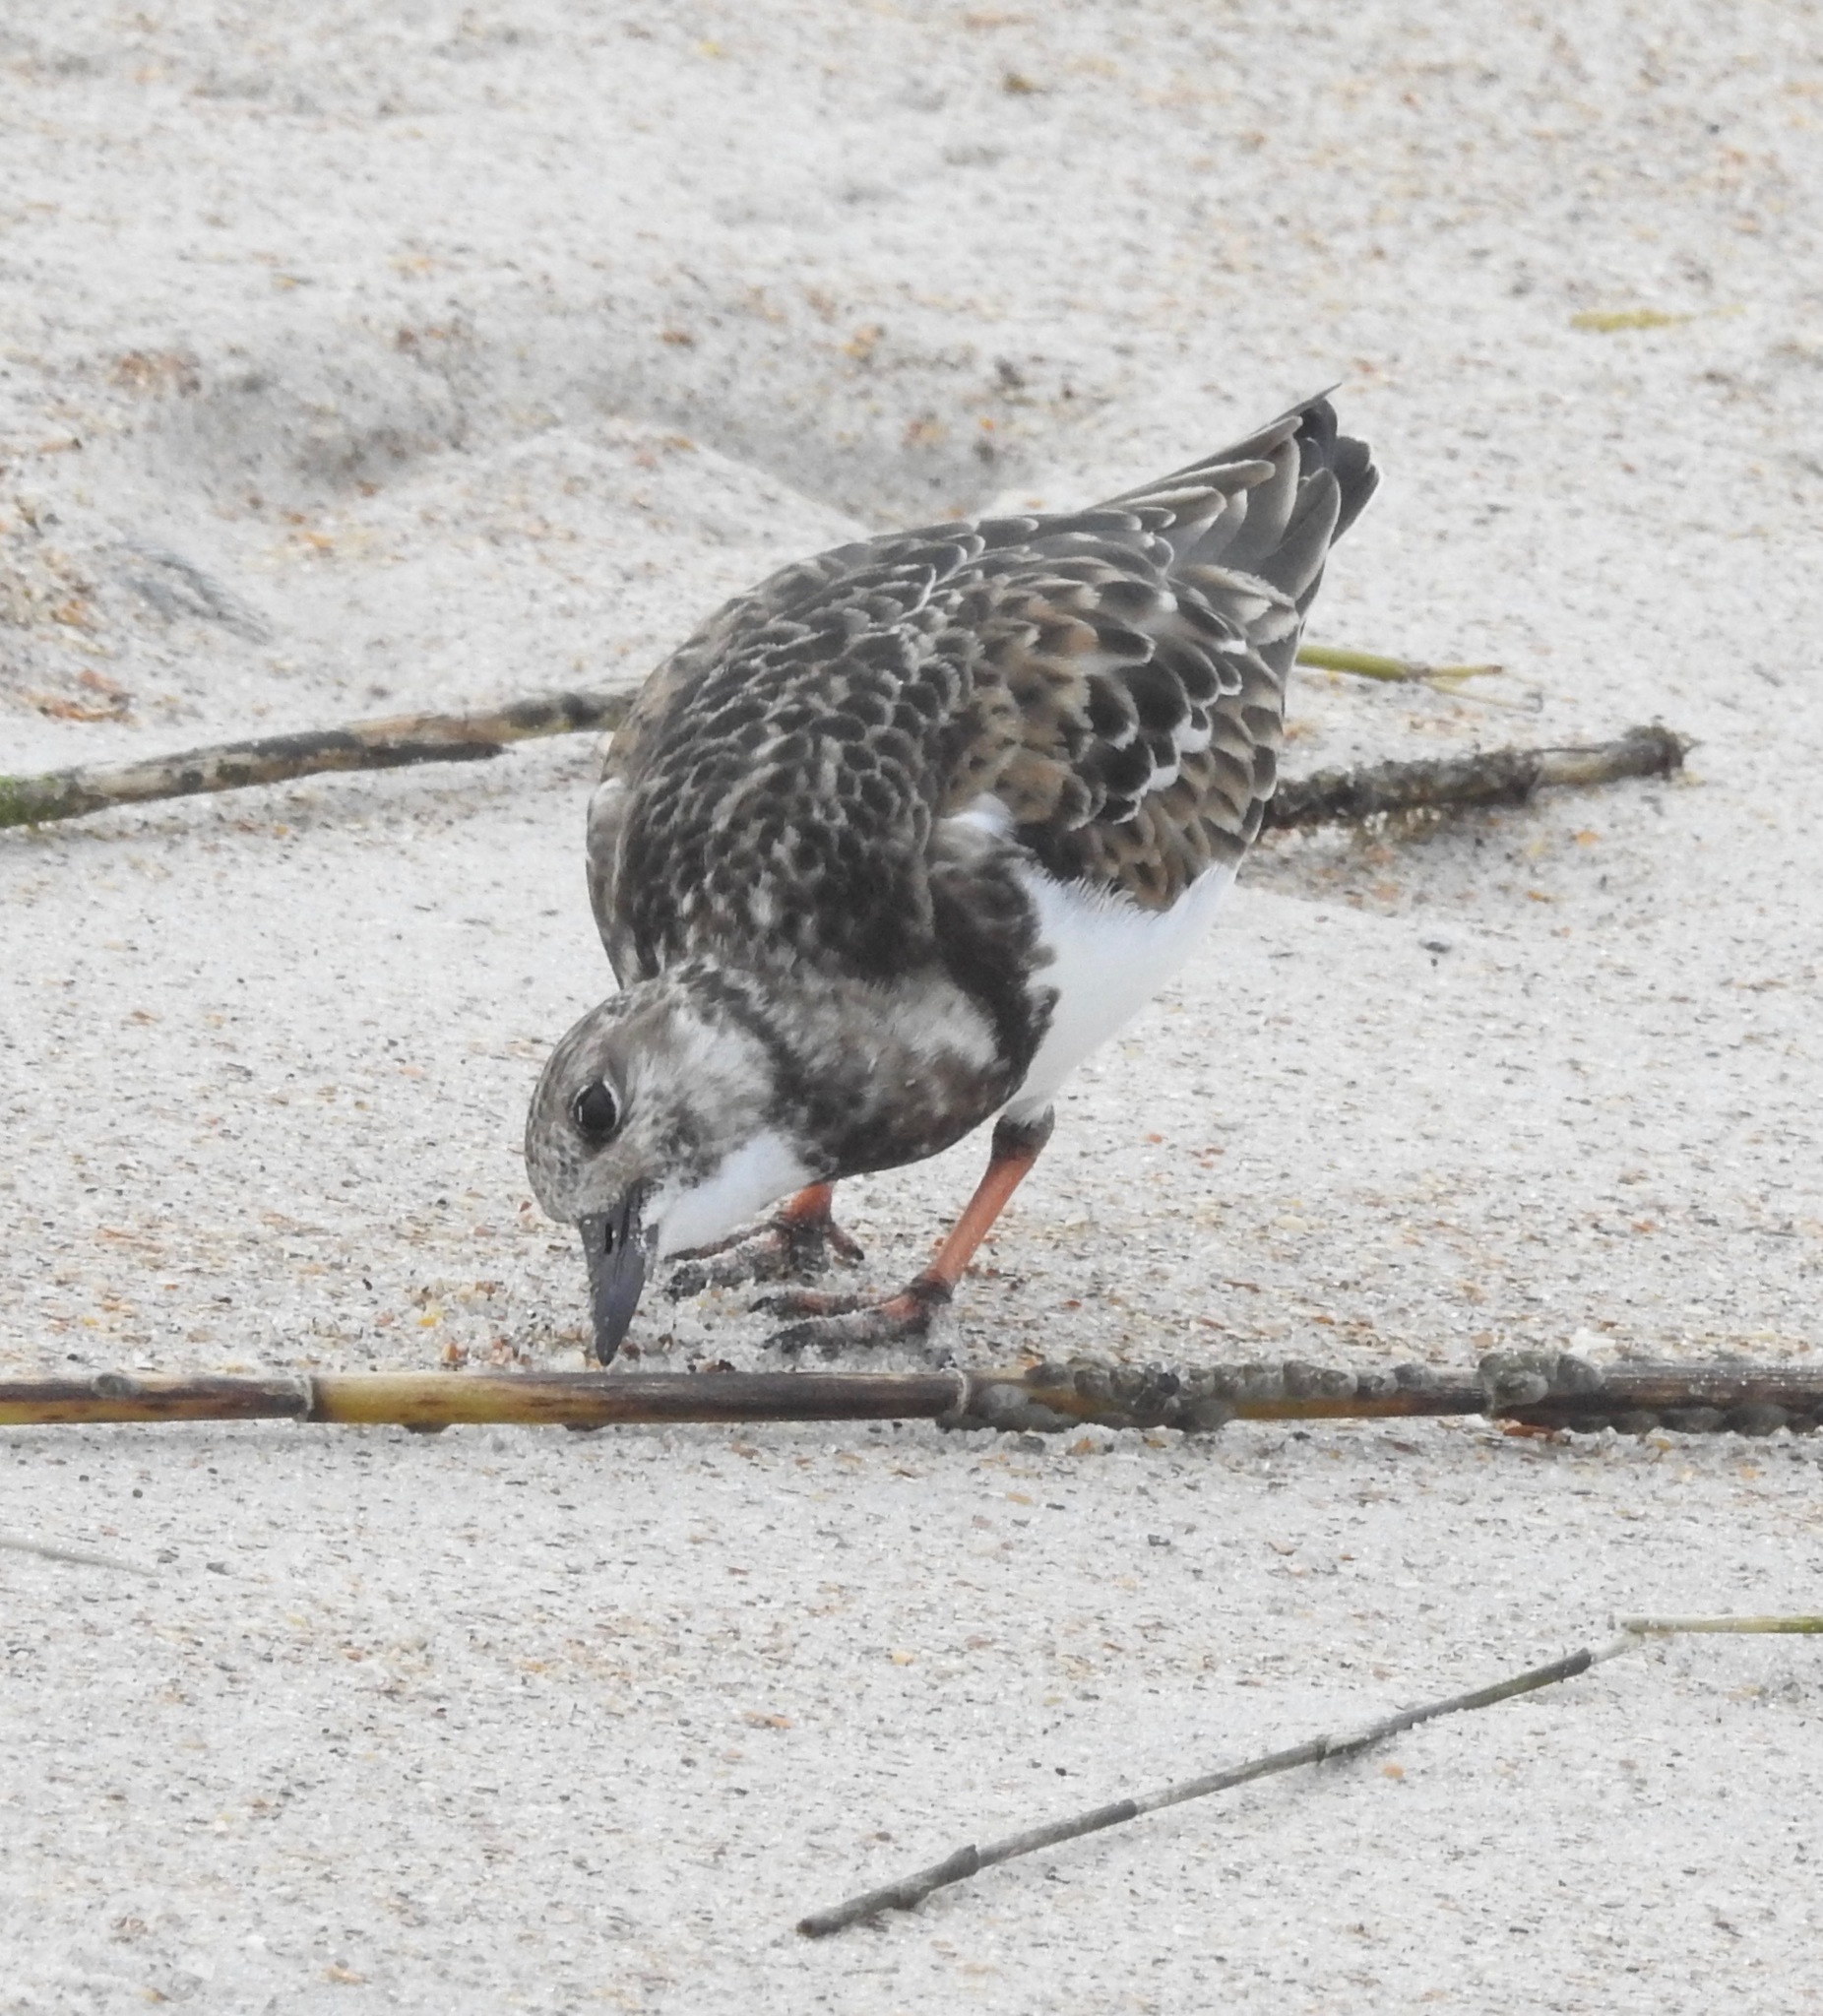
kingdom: Animalia
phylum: Chordata
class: Aves
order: Charadriiformes
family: Scolopacidae
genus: Arenaria
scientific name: Arenaria interpres
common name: Ruddy turnstone
